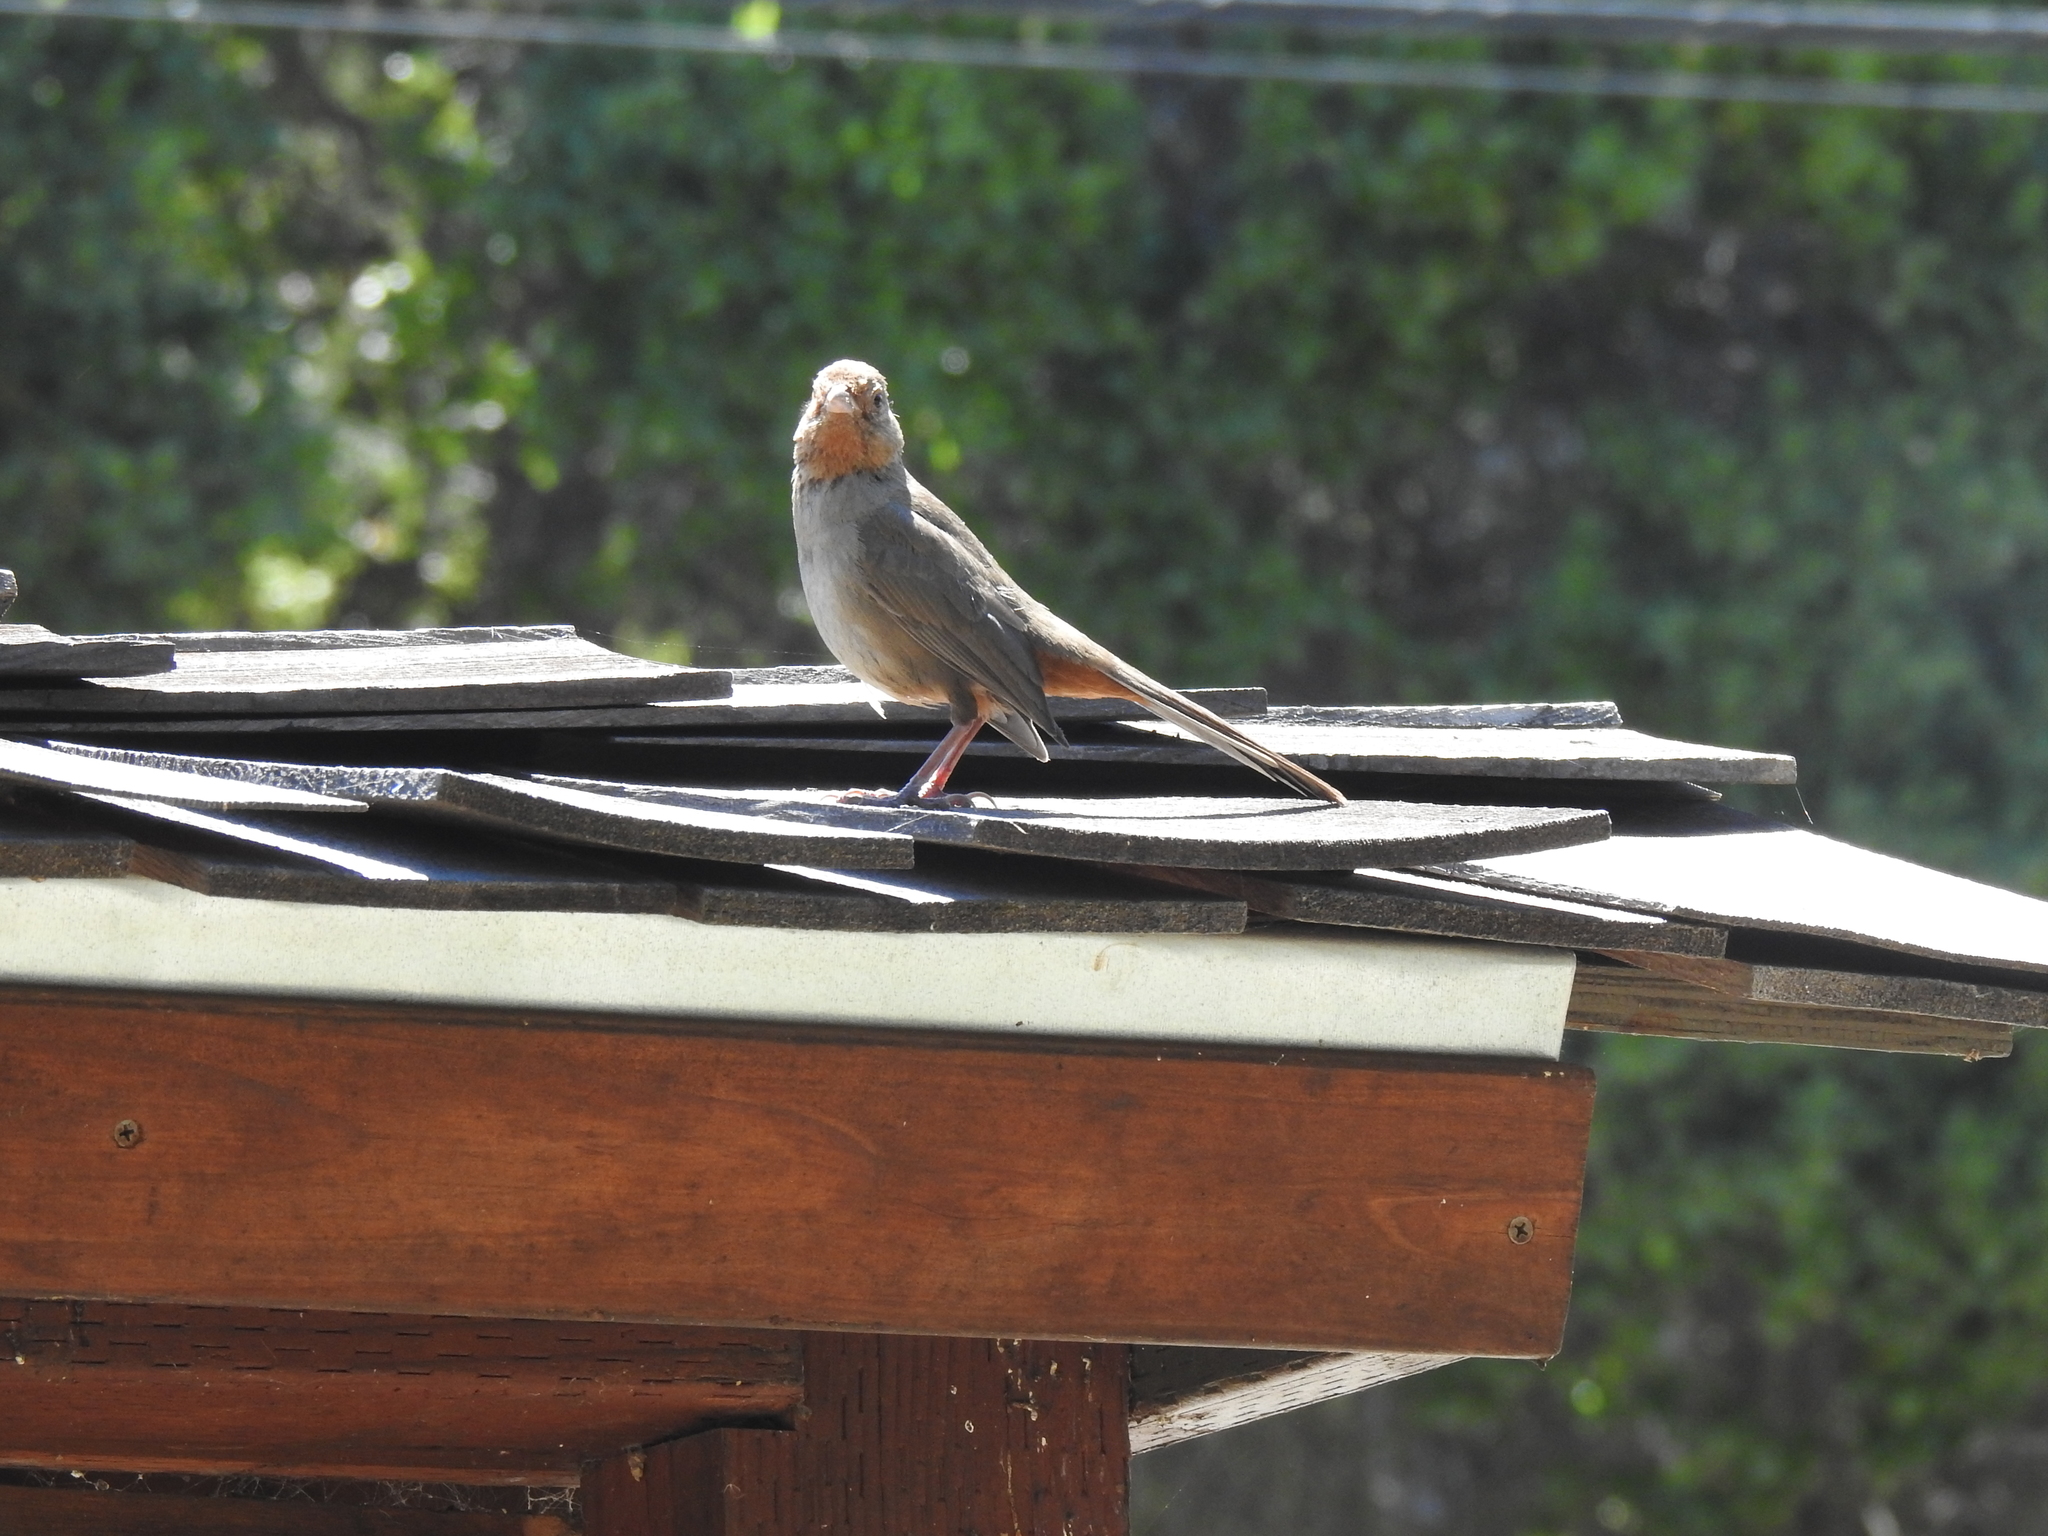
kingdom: Animalia
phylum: Chordata
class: Aves
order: Passeriformes
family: Passerellidae
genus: Melozone
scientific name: Melozone crissalis
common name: California towhee
